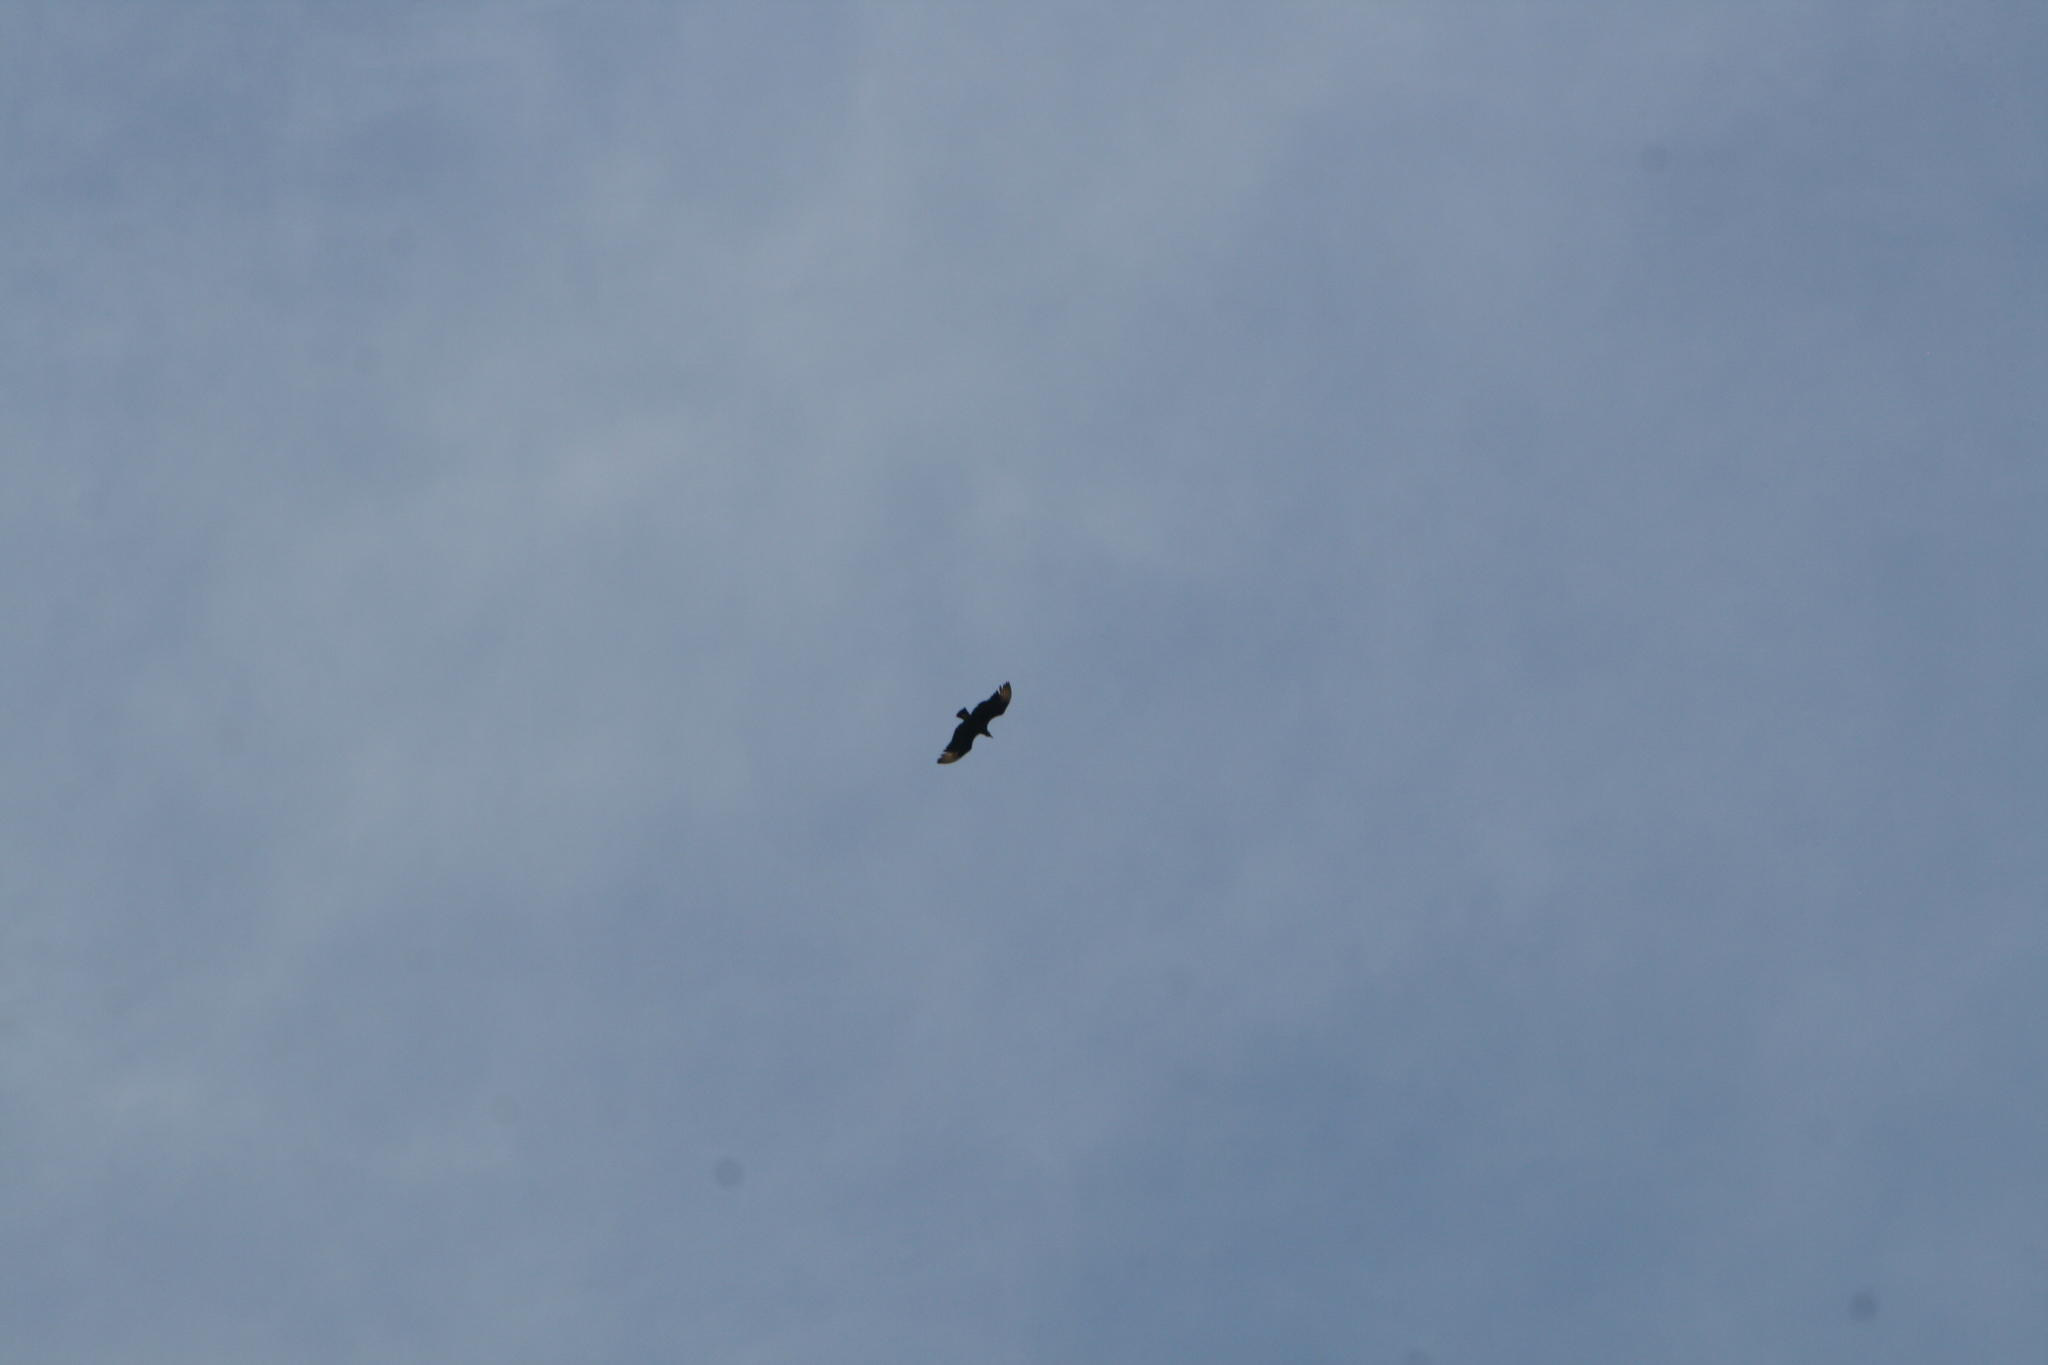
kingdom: Animalia
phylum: Chordata
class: Aves
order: Accipitriformes
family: Cathartidae
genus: Coragyps
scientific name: Coragyps atratus
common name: Black vulture
